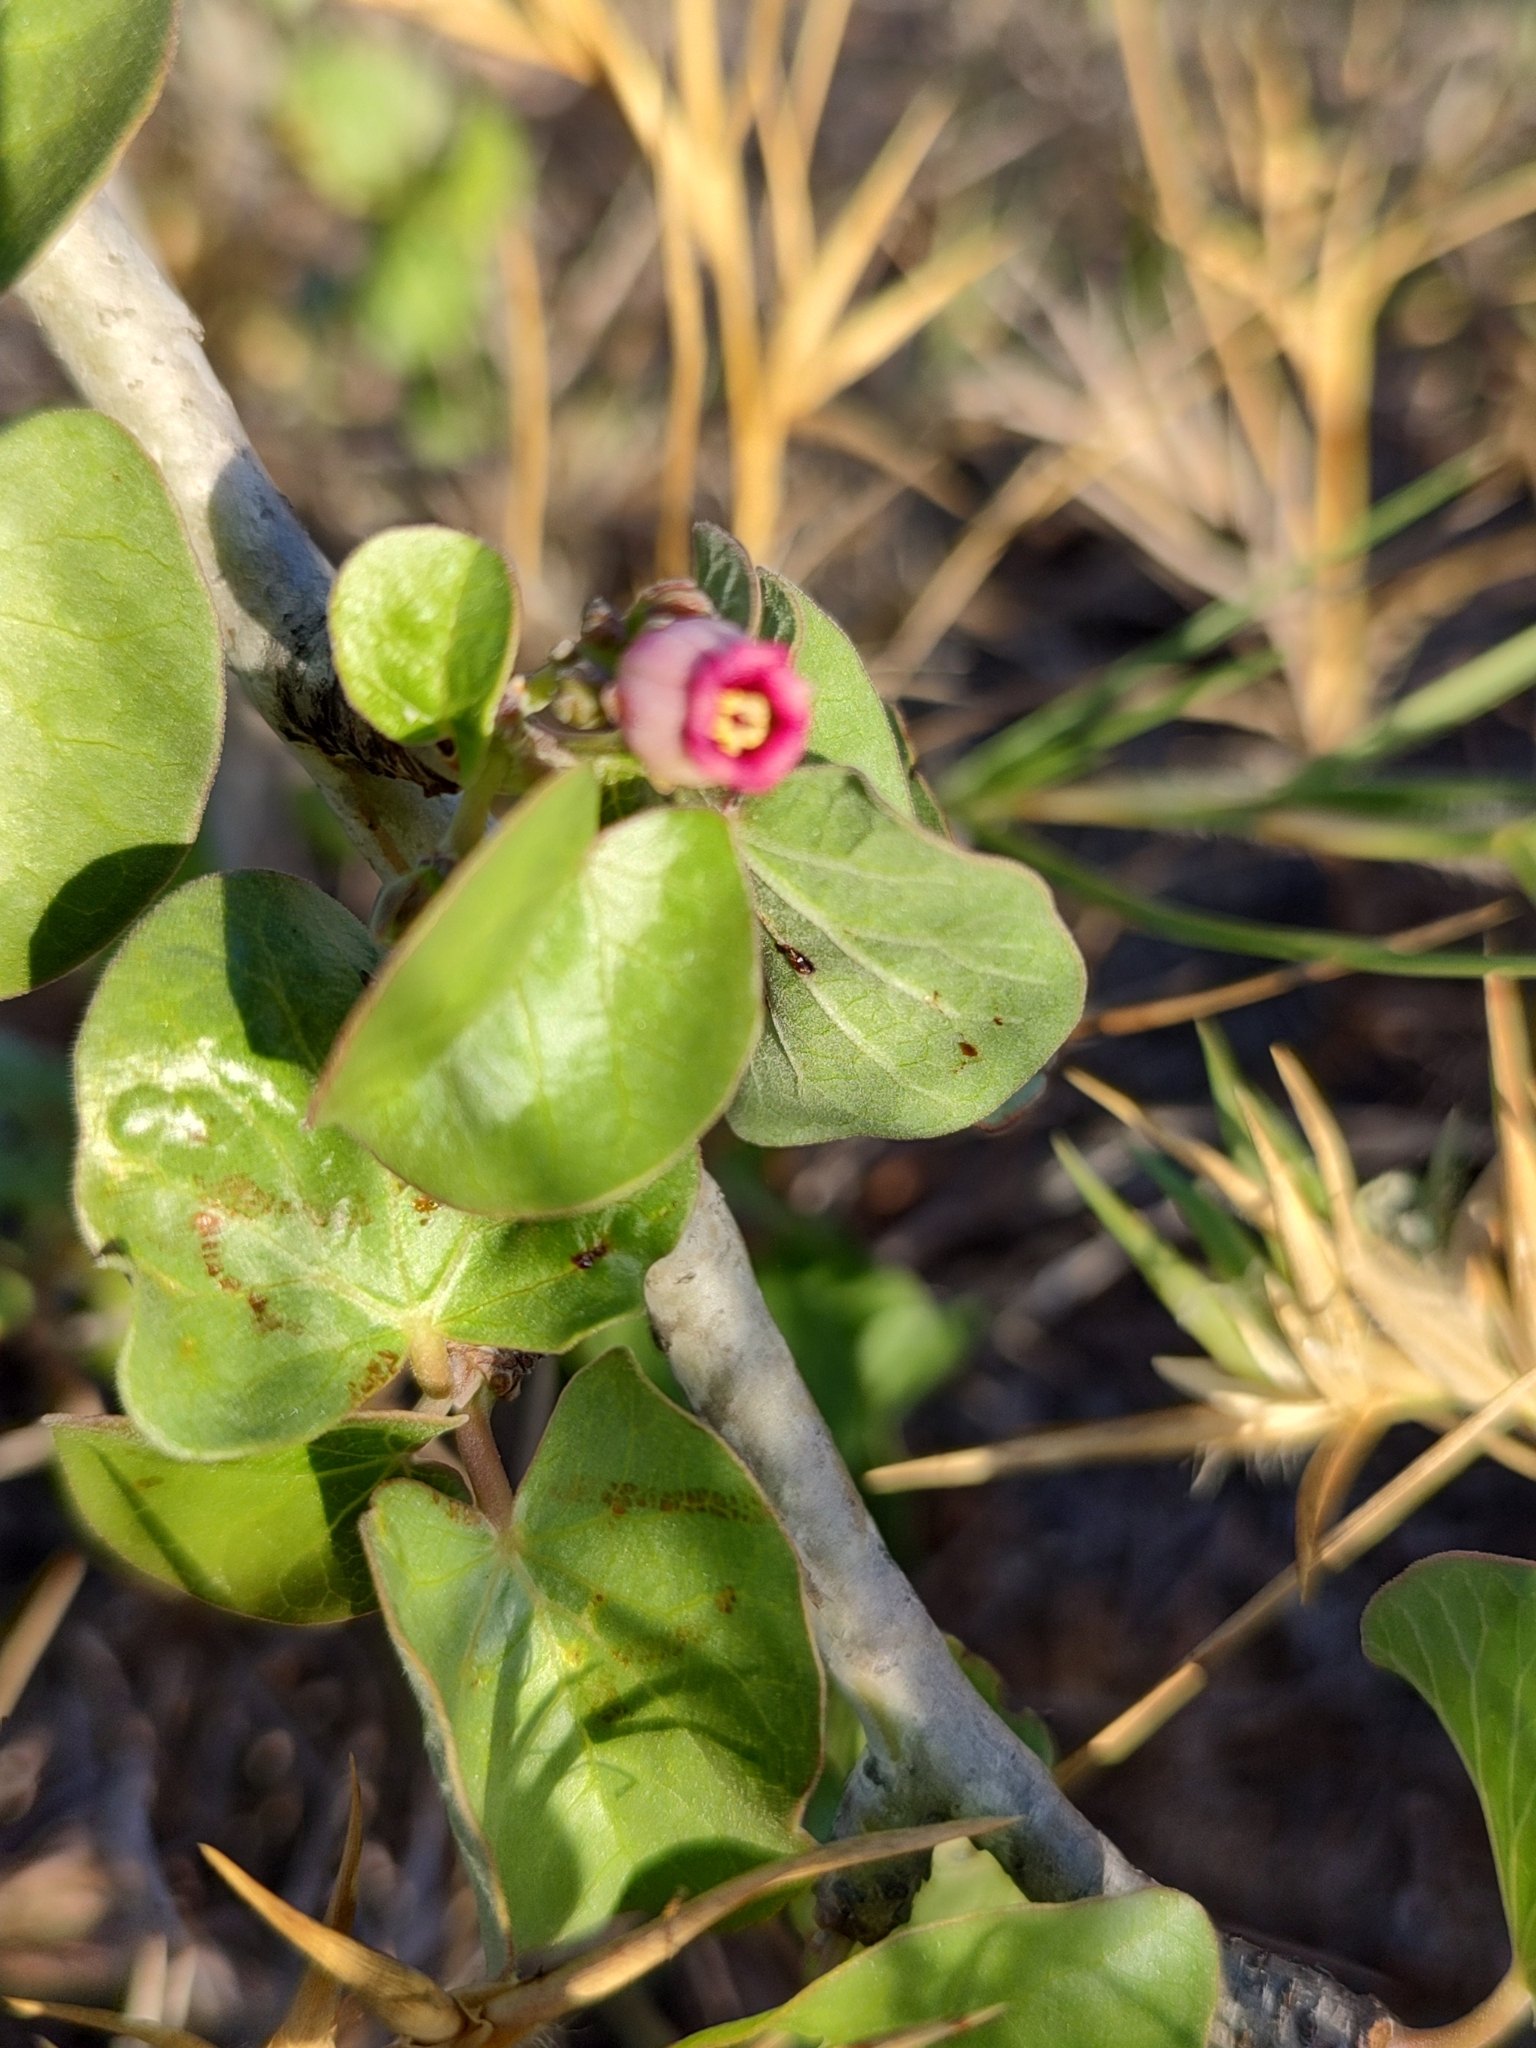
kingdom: Plantae
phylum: Tracheophyta
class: Magnoliopsida
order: Malpighiales
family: Euphorbiaceae
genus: Jatropha
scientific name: Jatropha cinerea
